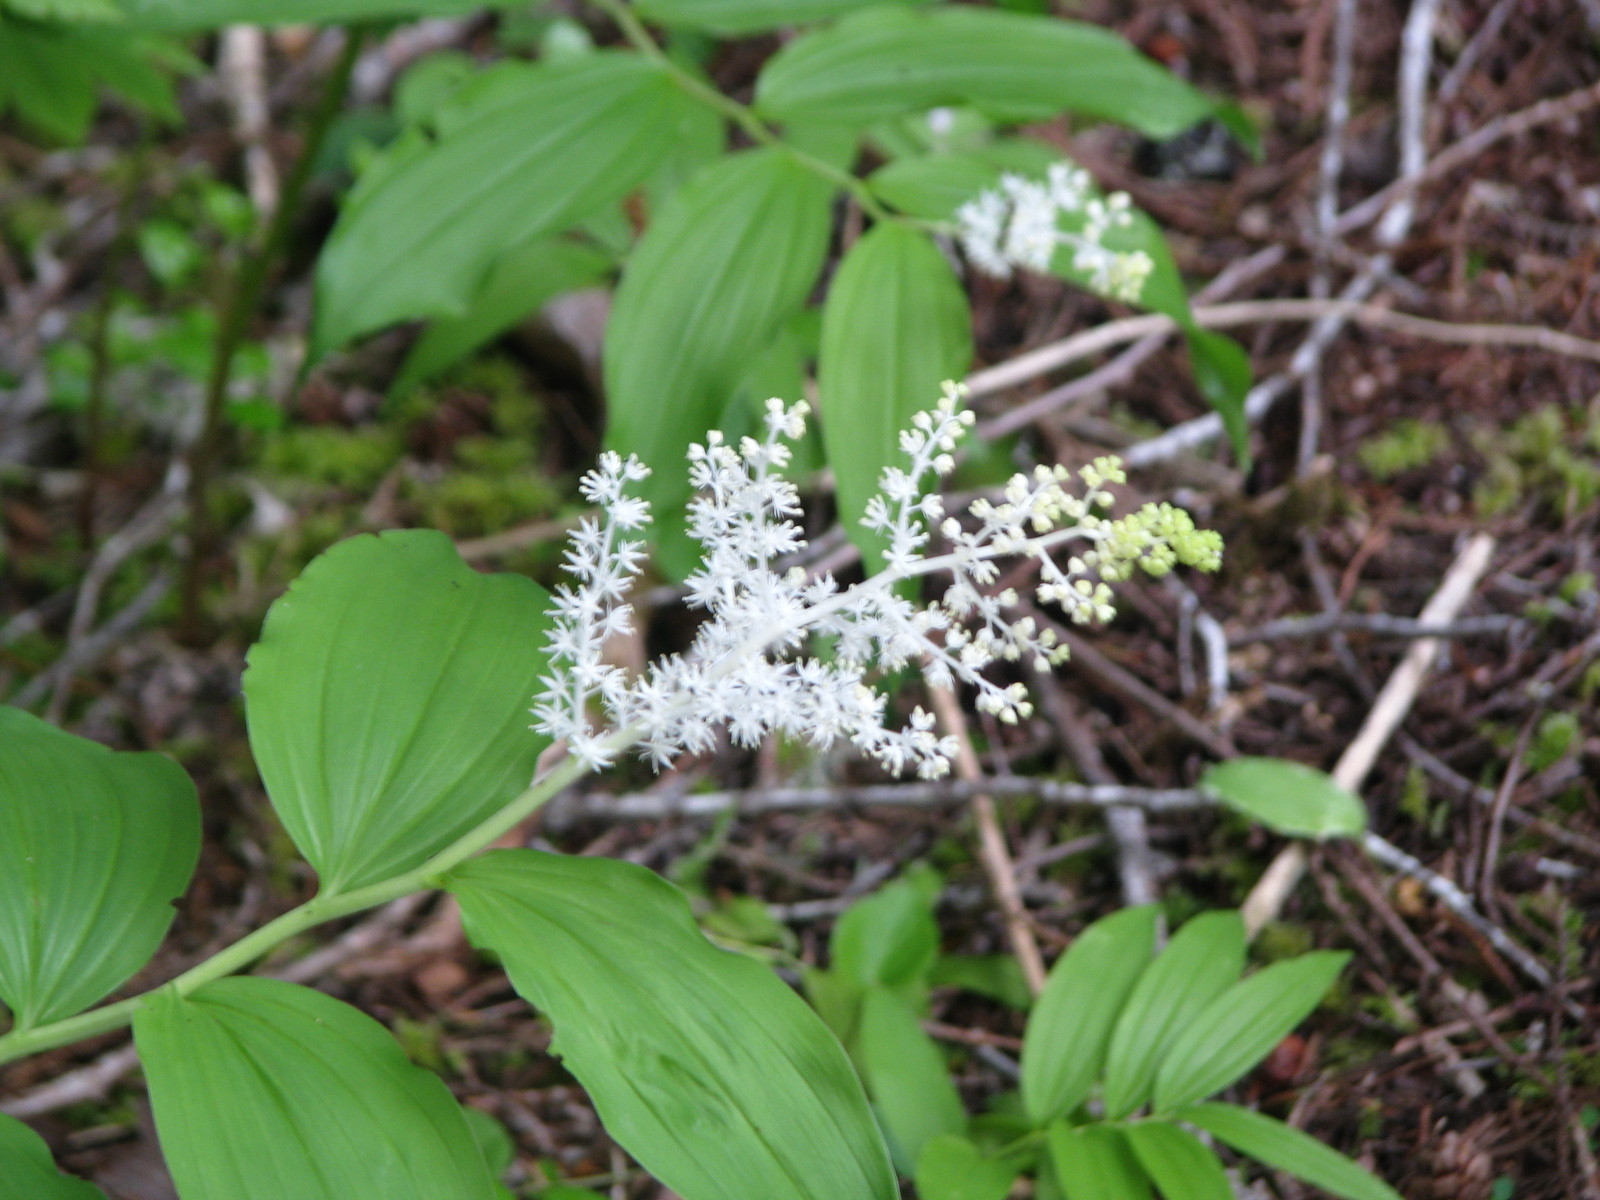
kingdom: Plantae
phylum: Tracheophyta
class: Liliopsida
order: Asparagales
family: Asparagaceae
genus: Maianthemum
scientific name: Maianthemum racemosum
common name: False spikenard
